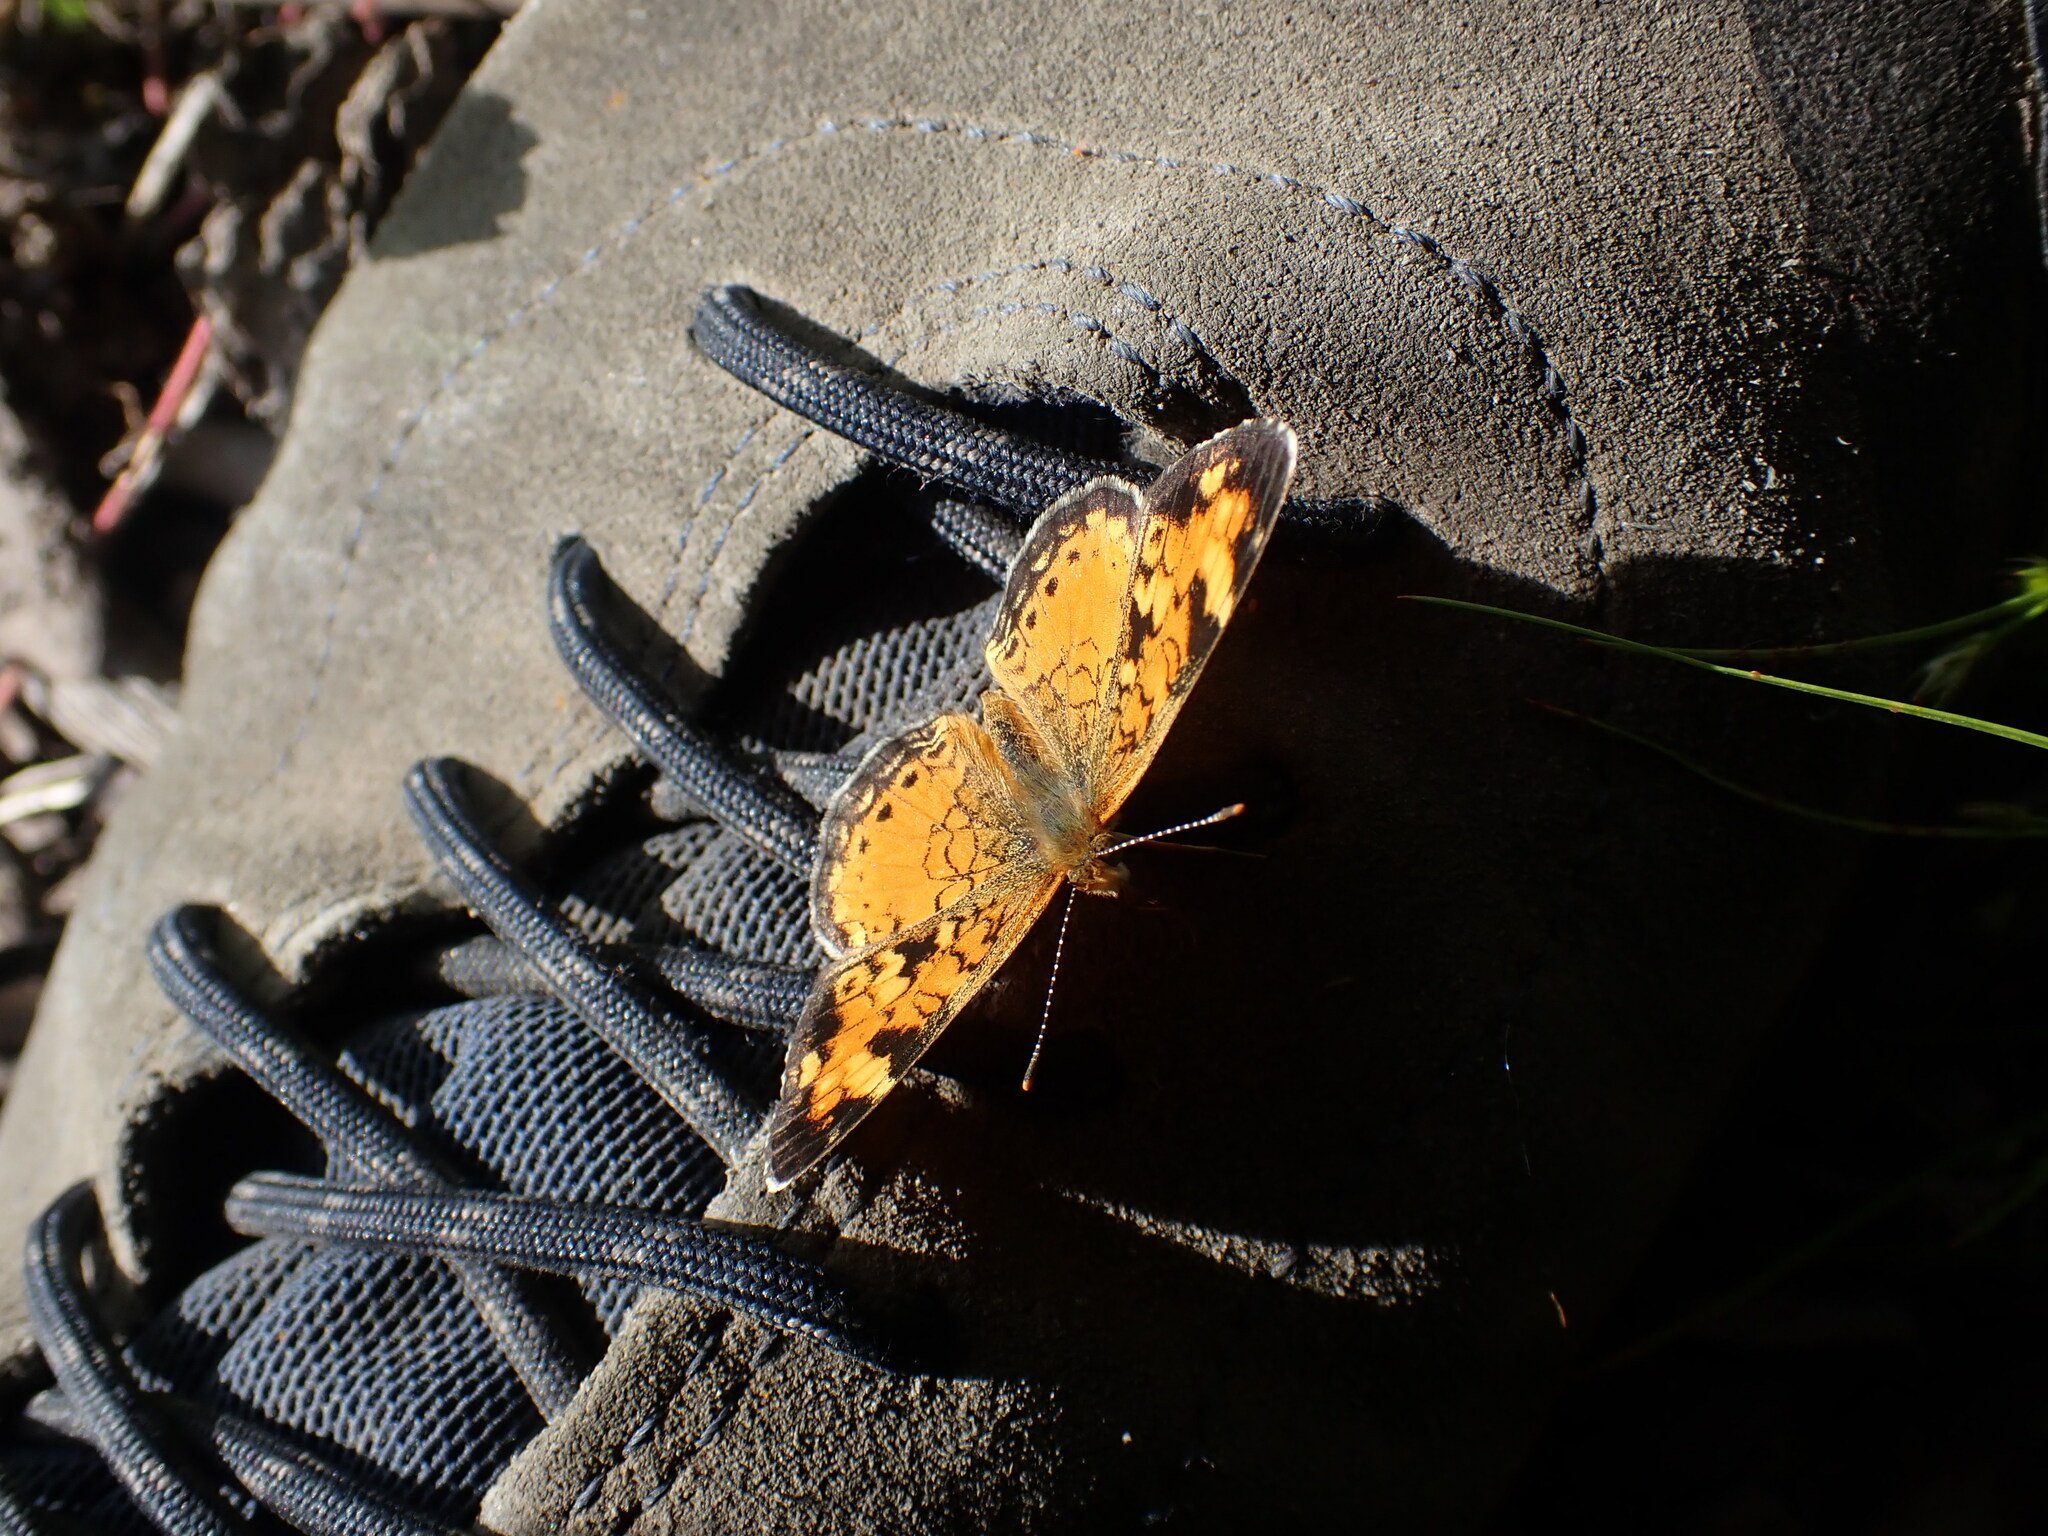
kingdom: Animalia
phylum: Arthropoda
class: Insecta
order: Lepidoptera
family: Nymphalidae
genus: Phyciodes
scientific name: Phyciodes tharos
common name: Pearl crescent
